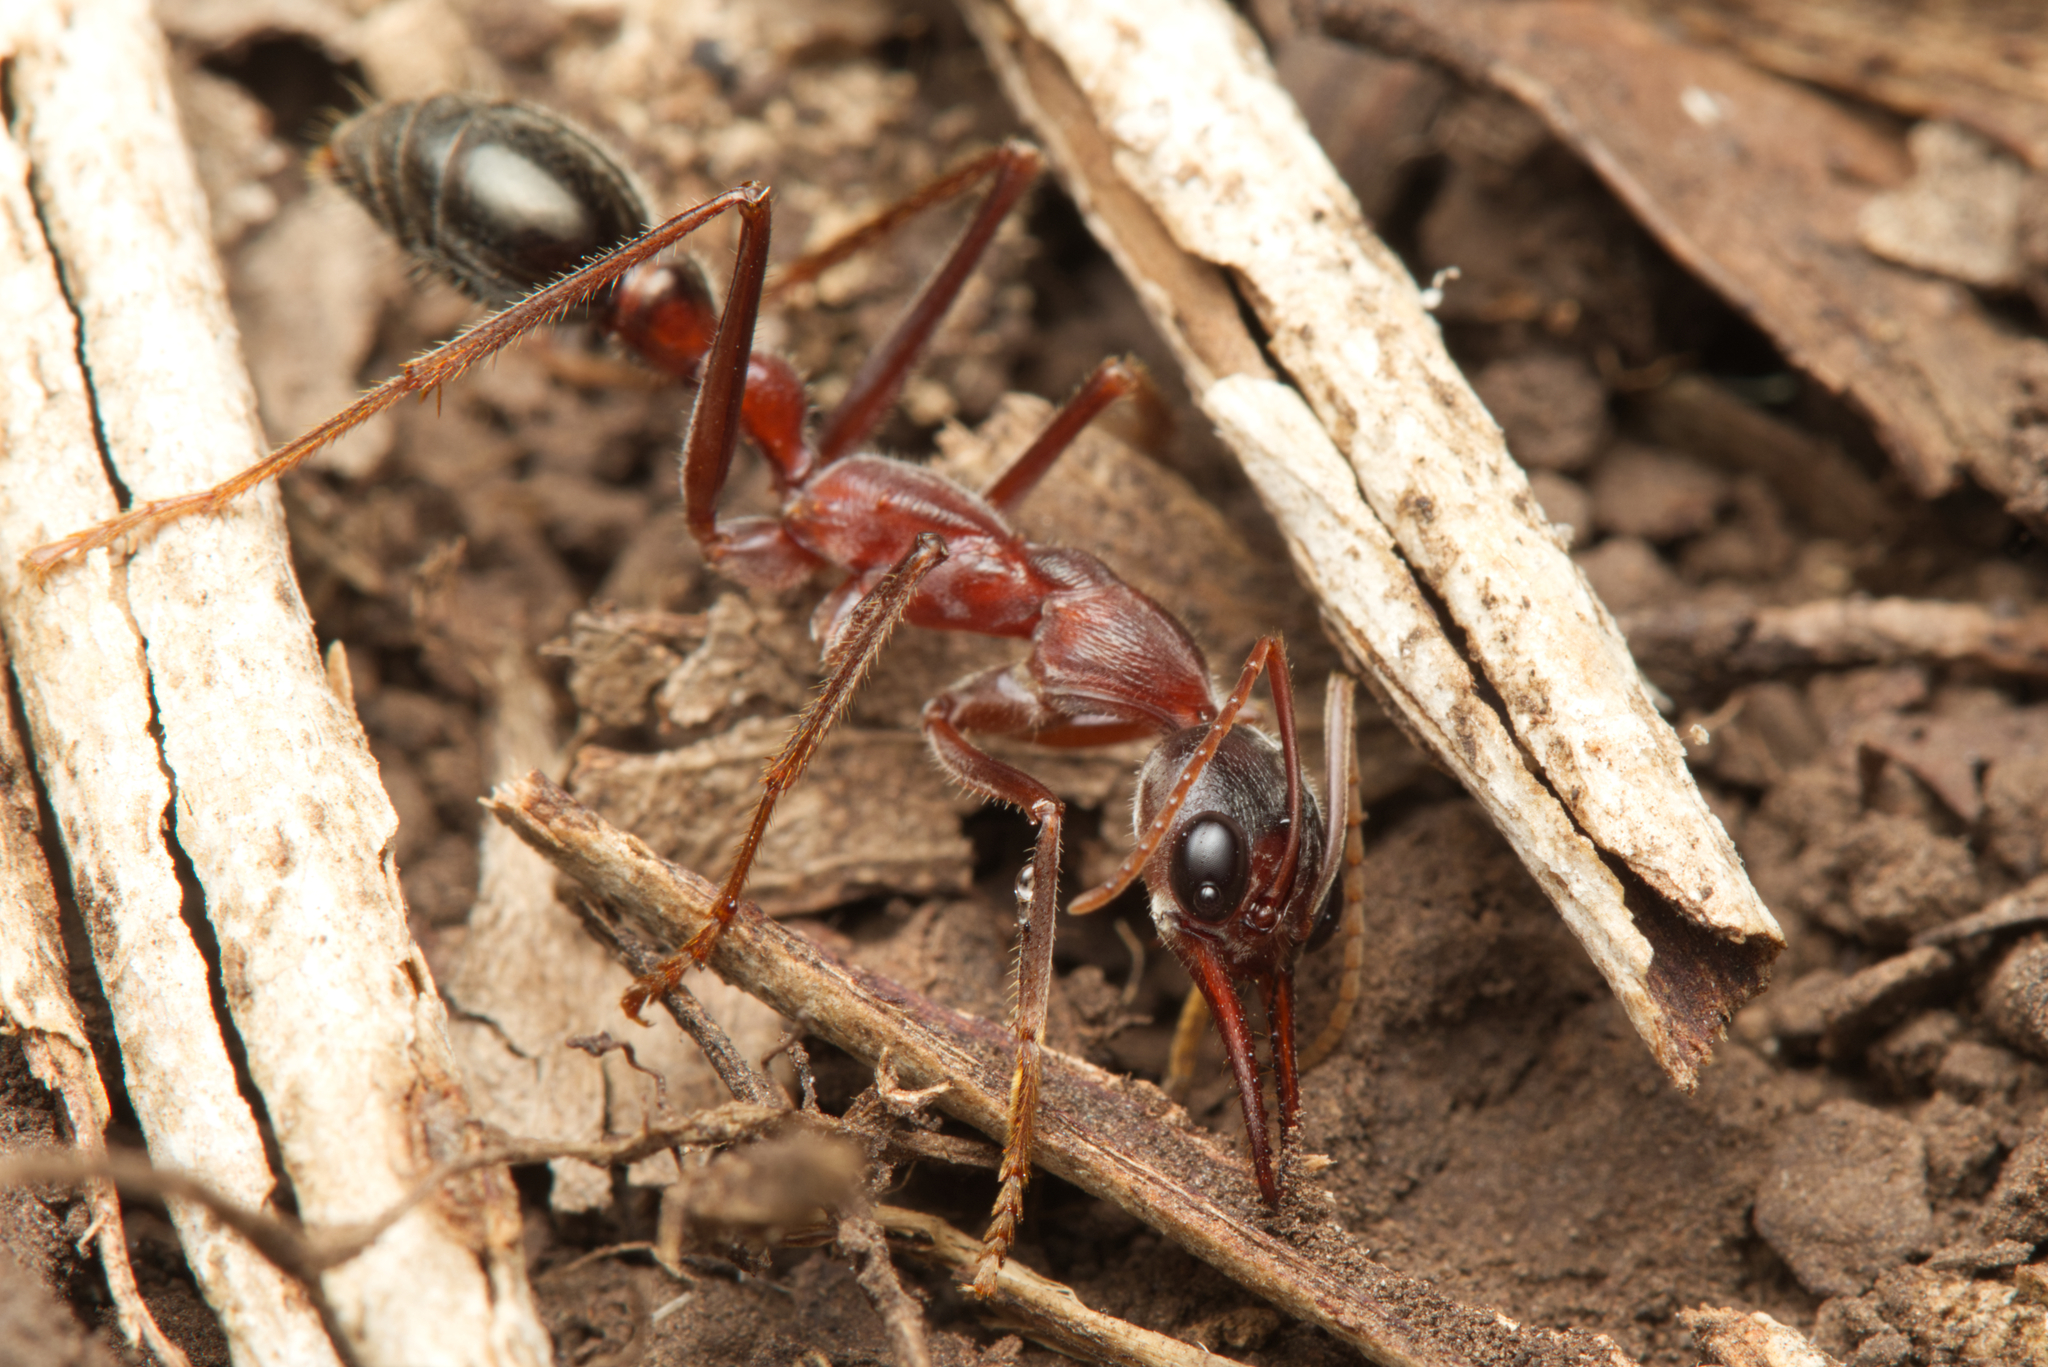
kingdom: Animalia
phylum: Arthropoda
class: Insecta
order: Hymenoptera
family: Formicidae
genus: Myrmecia
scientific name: Myrmecia brevinoda
